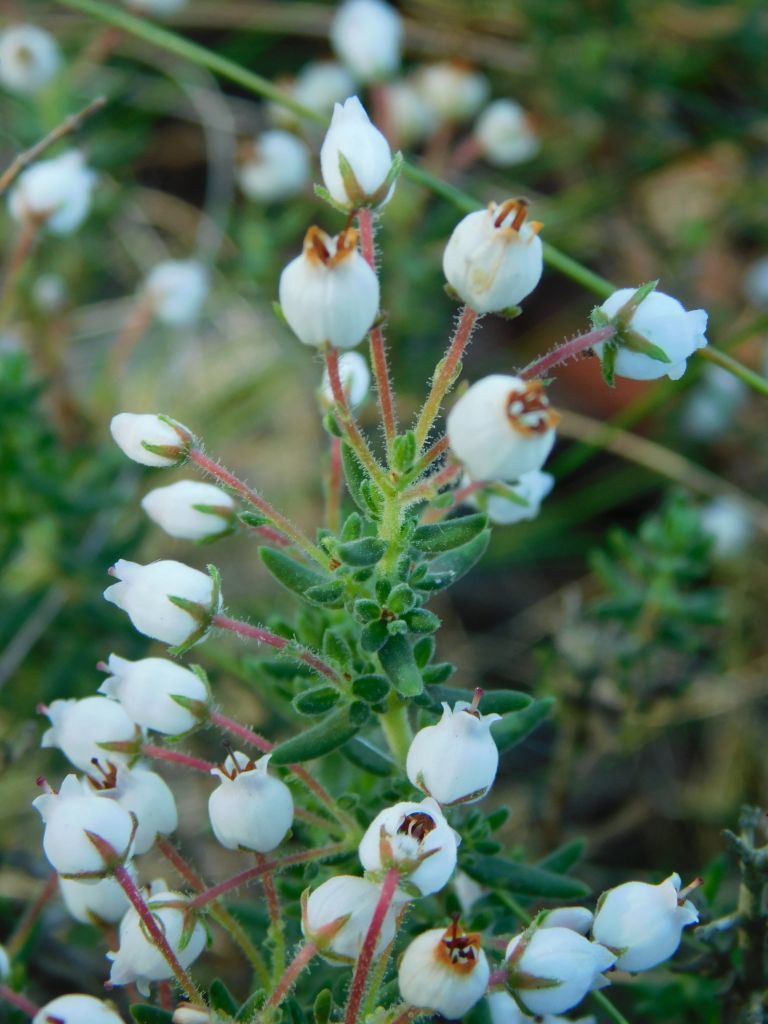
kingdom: Plantae
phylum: Tracheophyta
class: Magnoliopsida
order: Ericales
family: Ericaceae
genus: Erica
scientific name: Erica hirta
